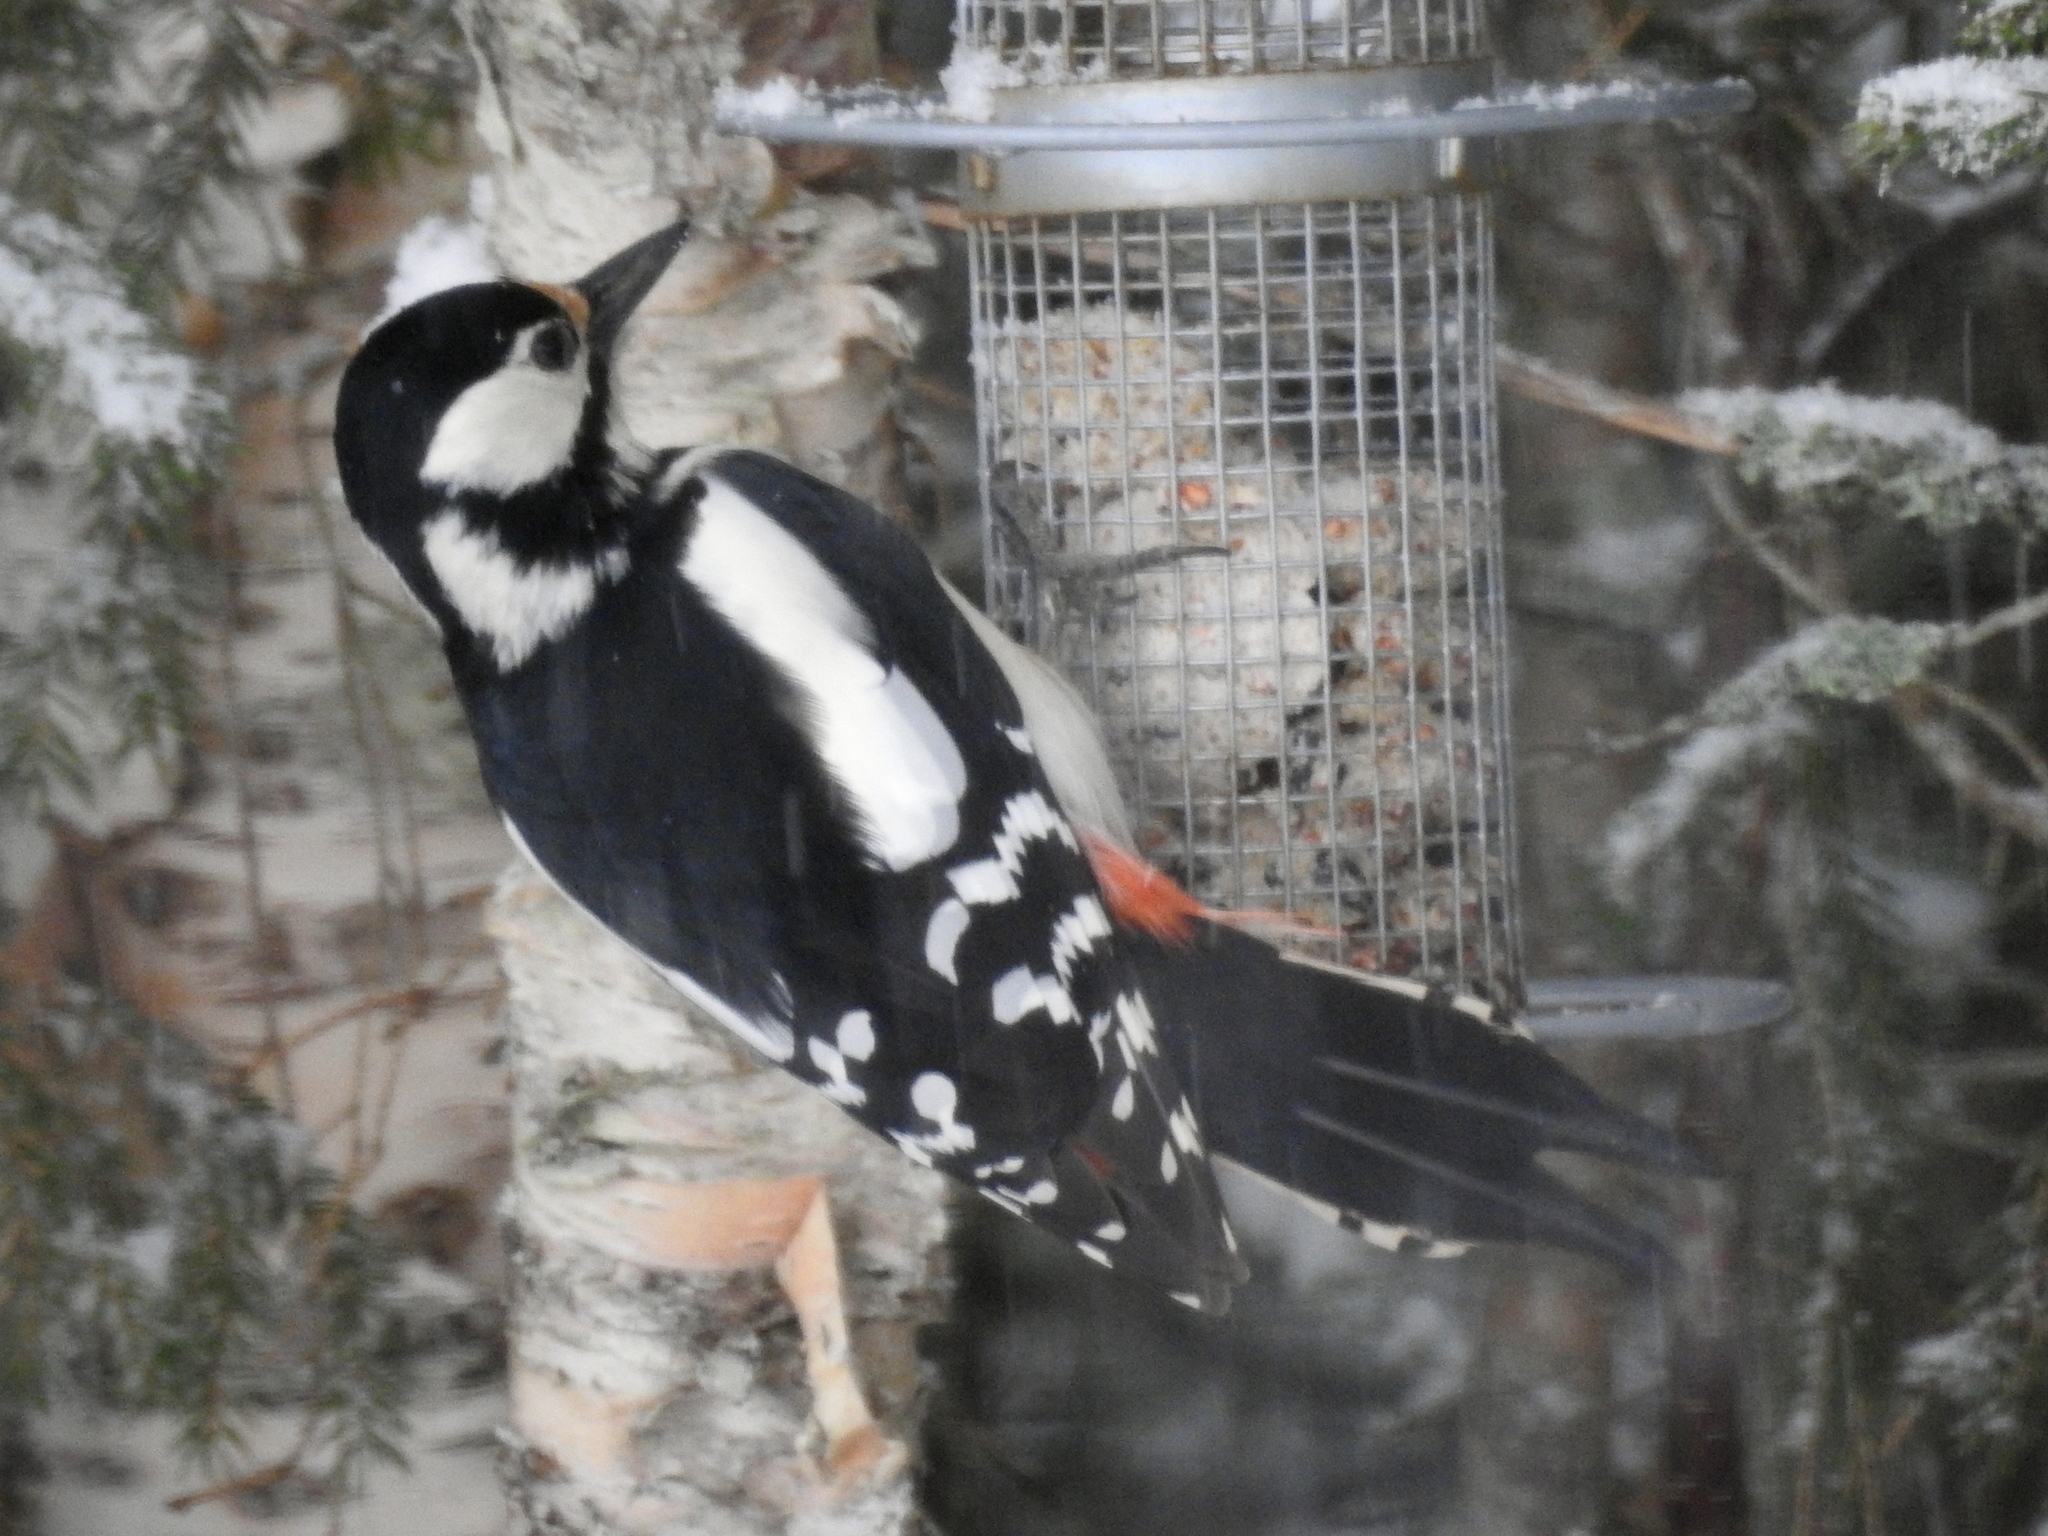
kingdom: Animalia
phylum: Chordata
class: Aves
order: Piciformes
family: Picidae
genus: Dendrocopos
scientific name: Dendrocopos major
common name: Great spotted woodpecker
